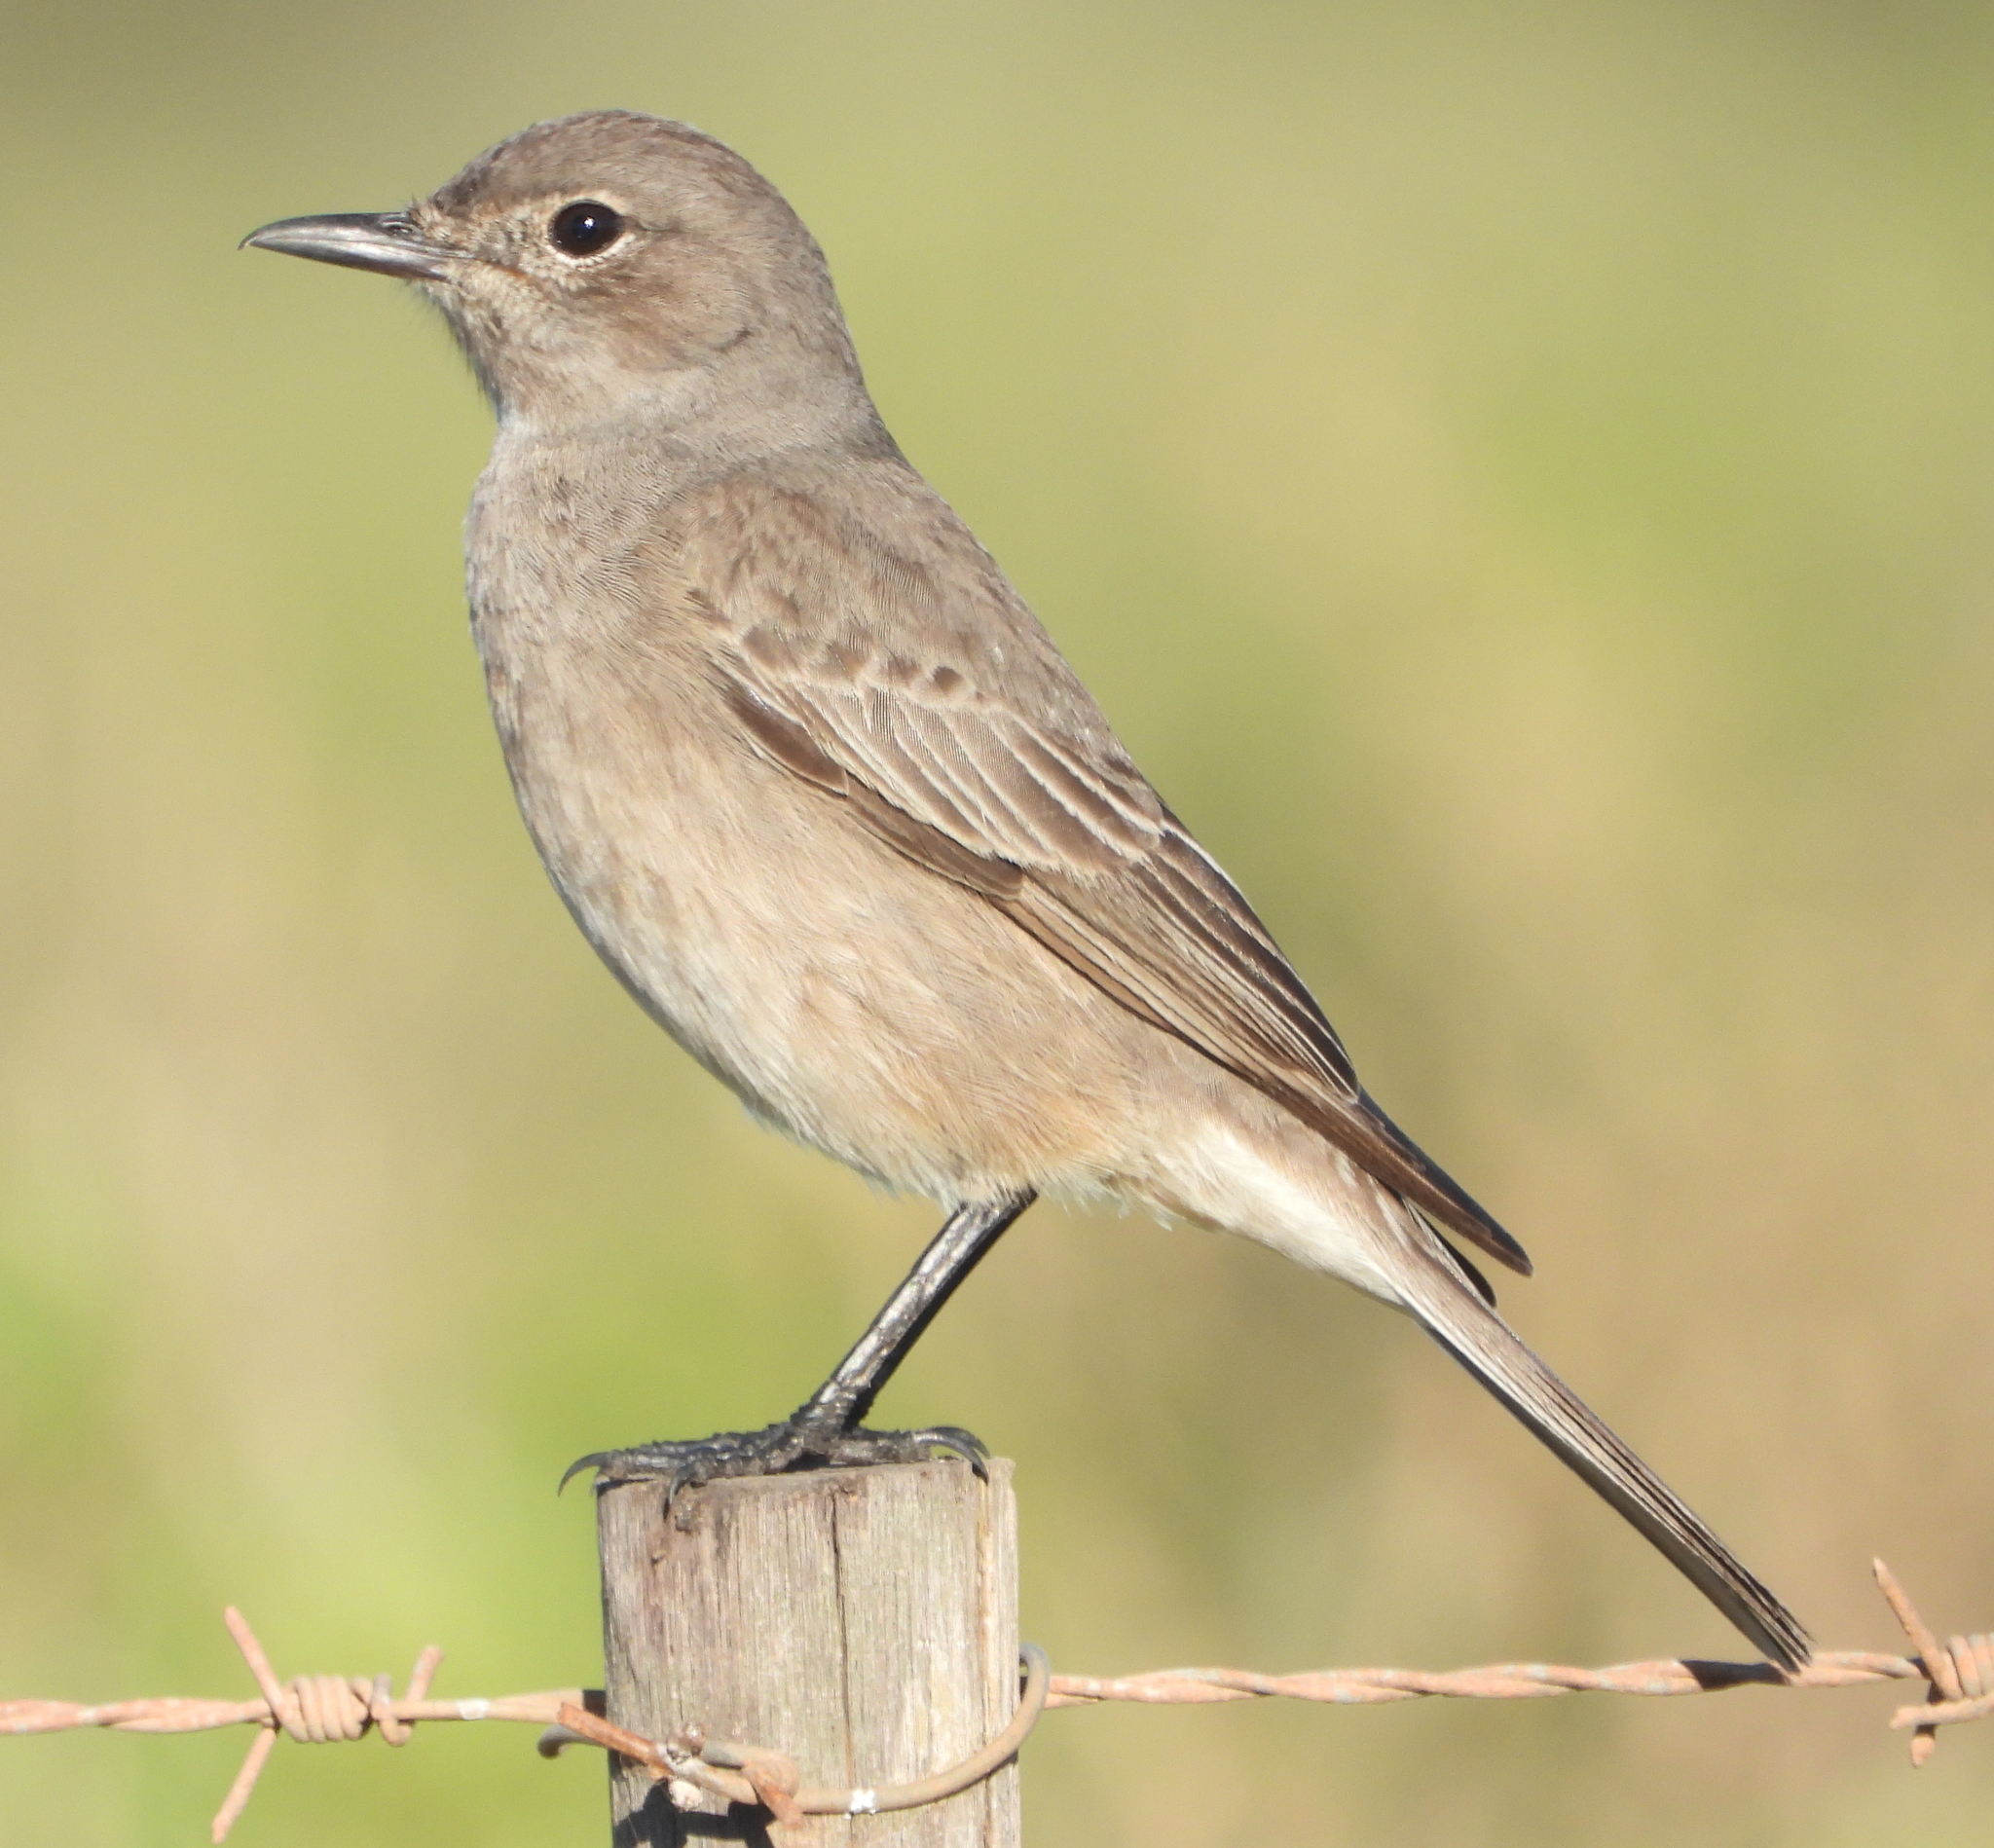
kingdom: Animalia
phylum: Chordata
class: Aves
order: Passeriformes
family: Muscicapidae
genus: Bradornis
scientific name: Bradornis infuscatus
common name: Chat flycatcher
